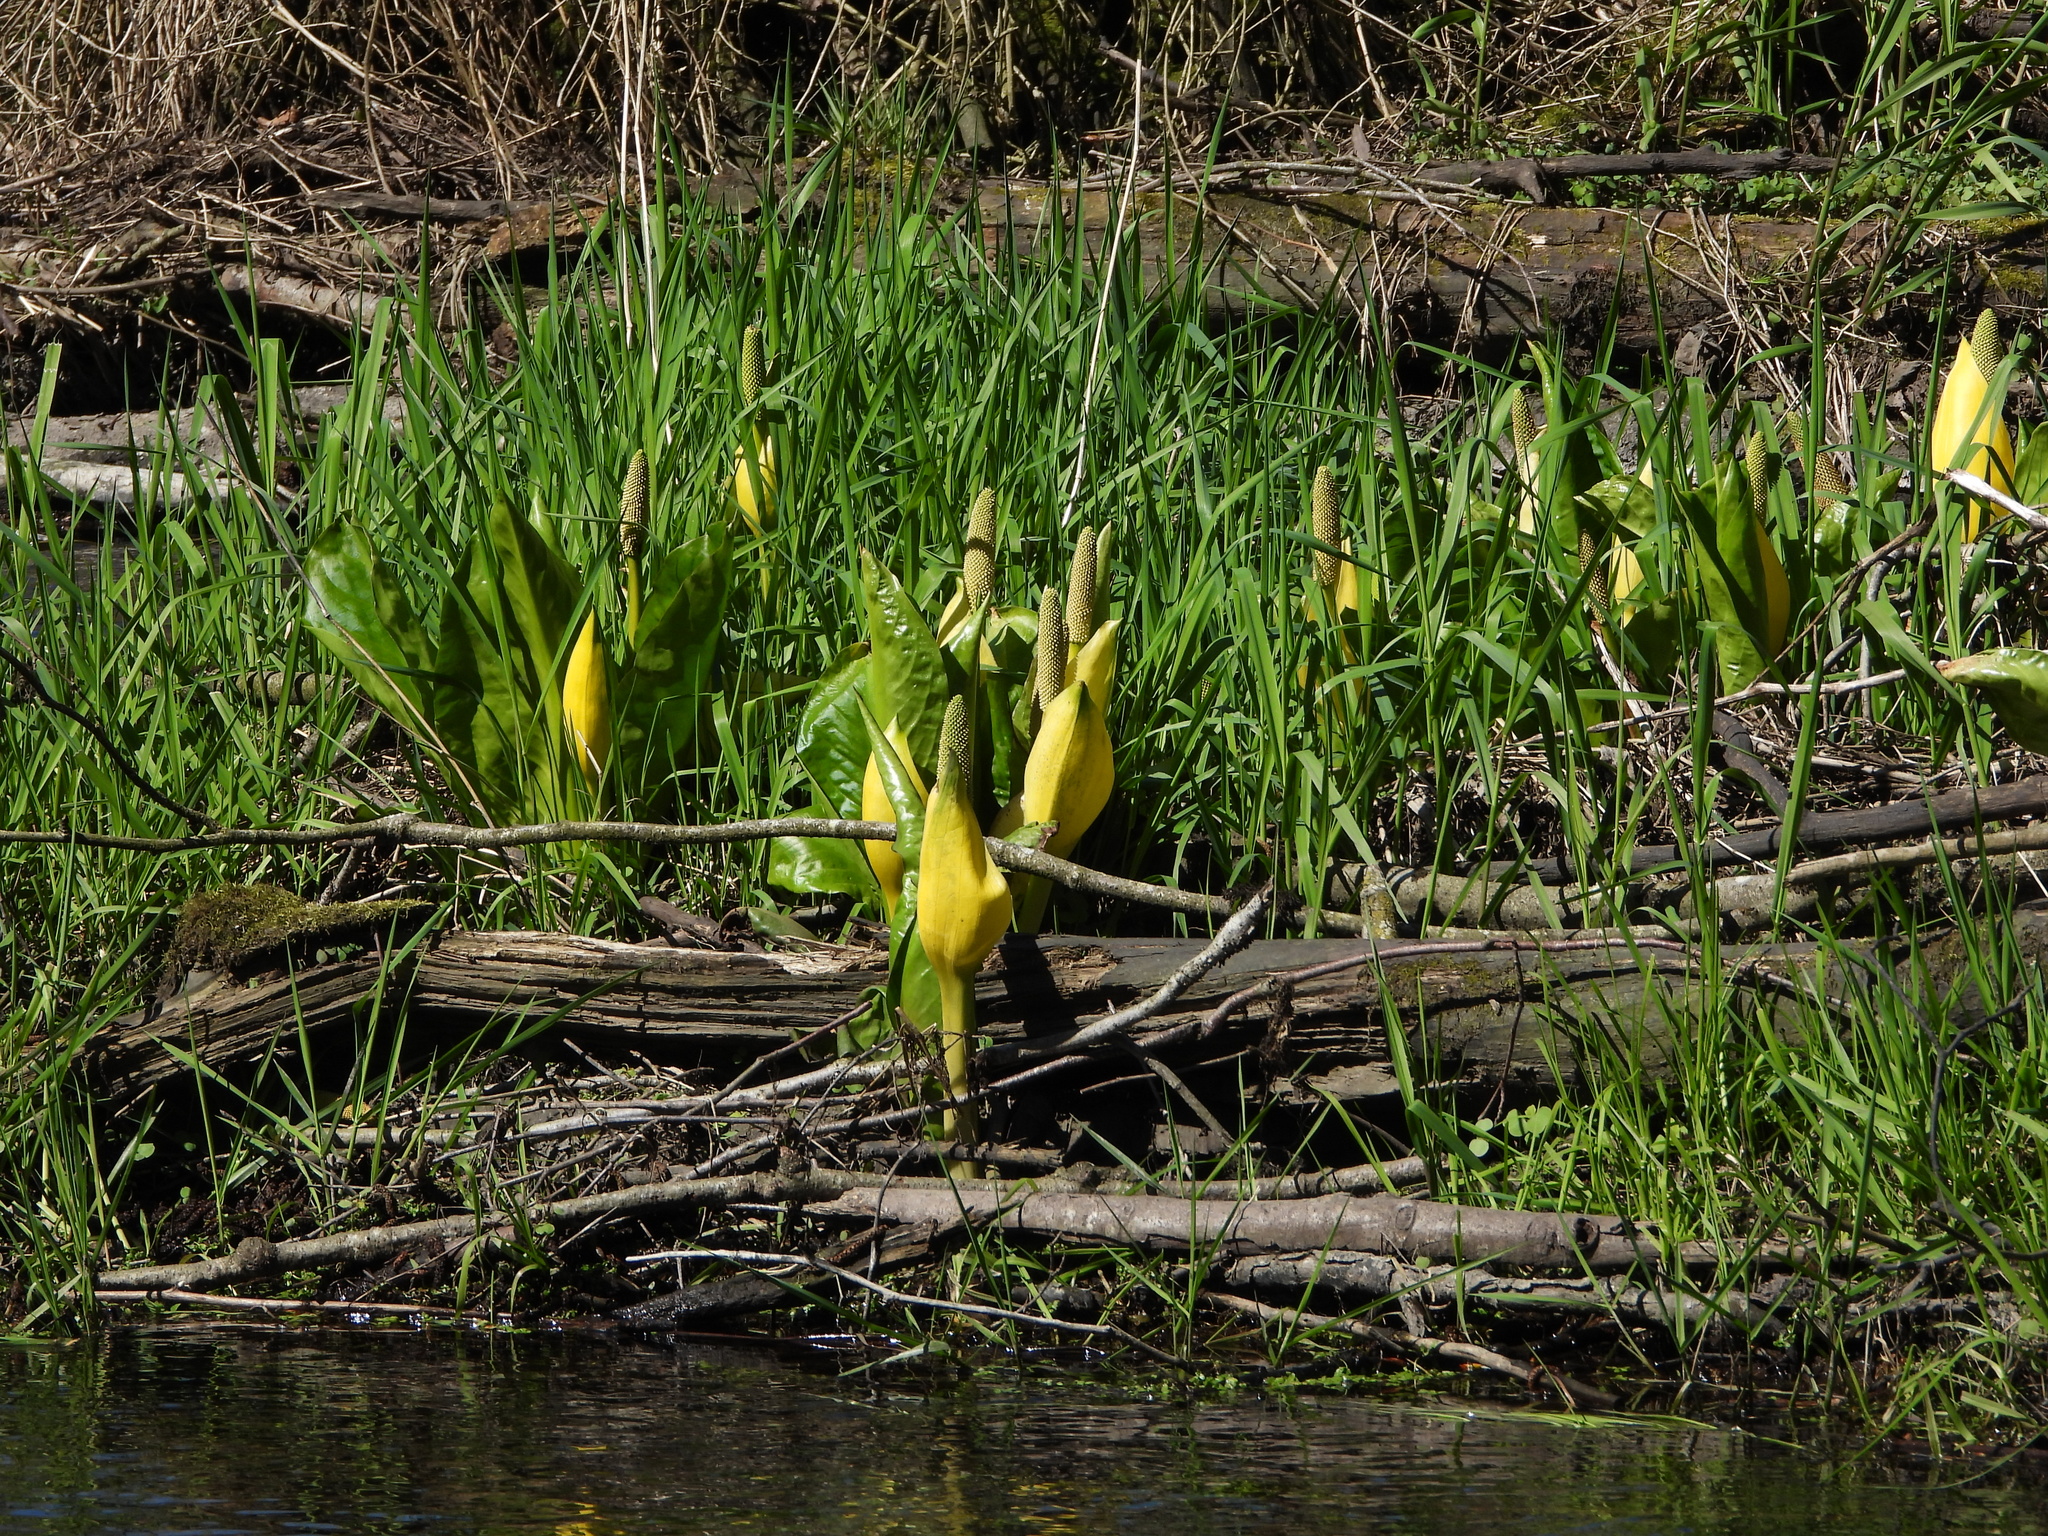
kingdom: Plantae
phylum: Tracheophyta
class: Liliopsida
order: Alismatales
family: Araceae
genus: Lysichiton
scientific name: Lysichiton americanus
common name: American skunk cabbage
